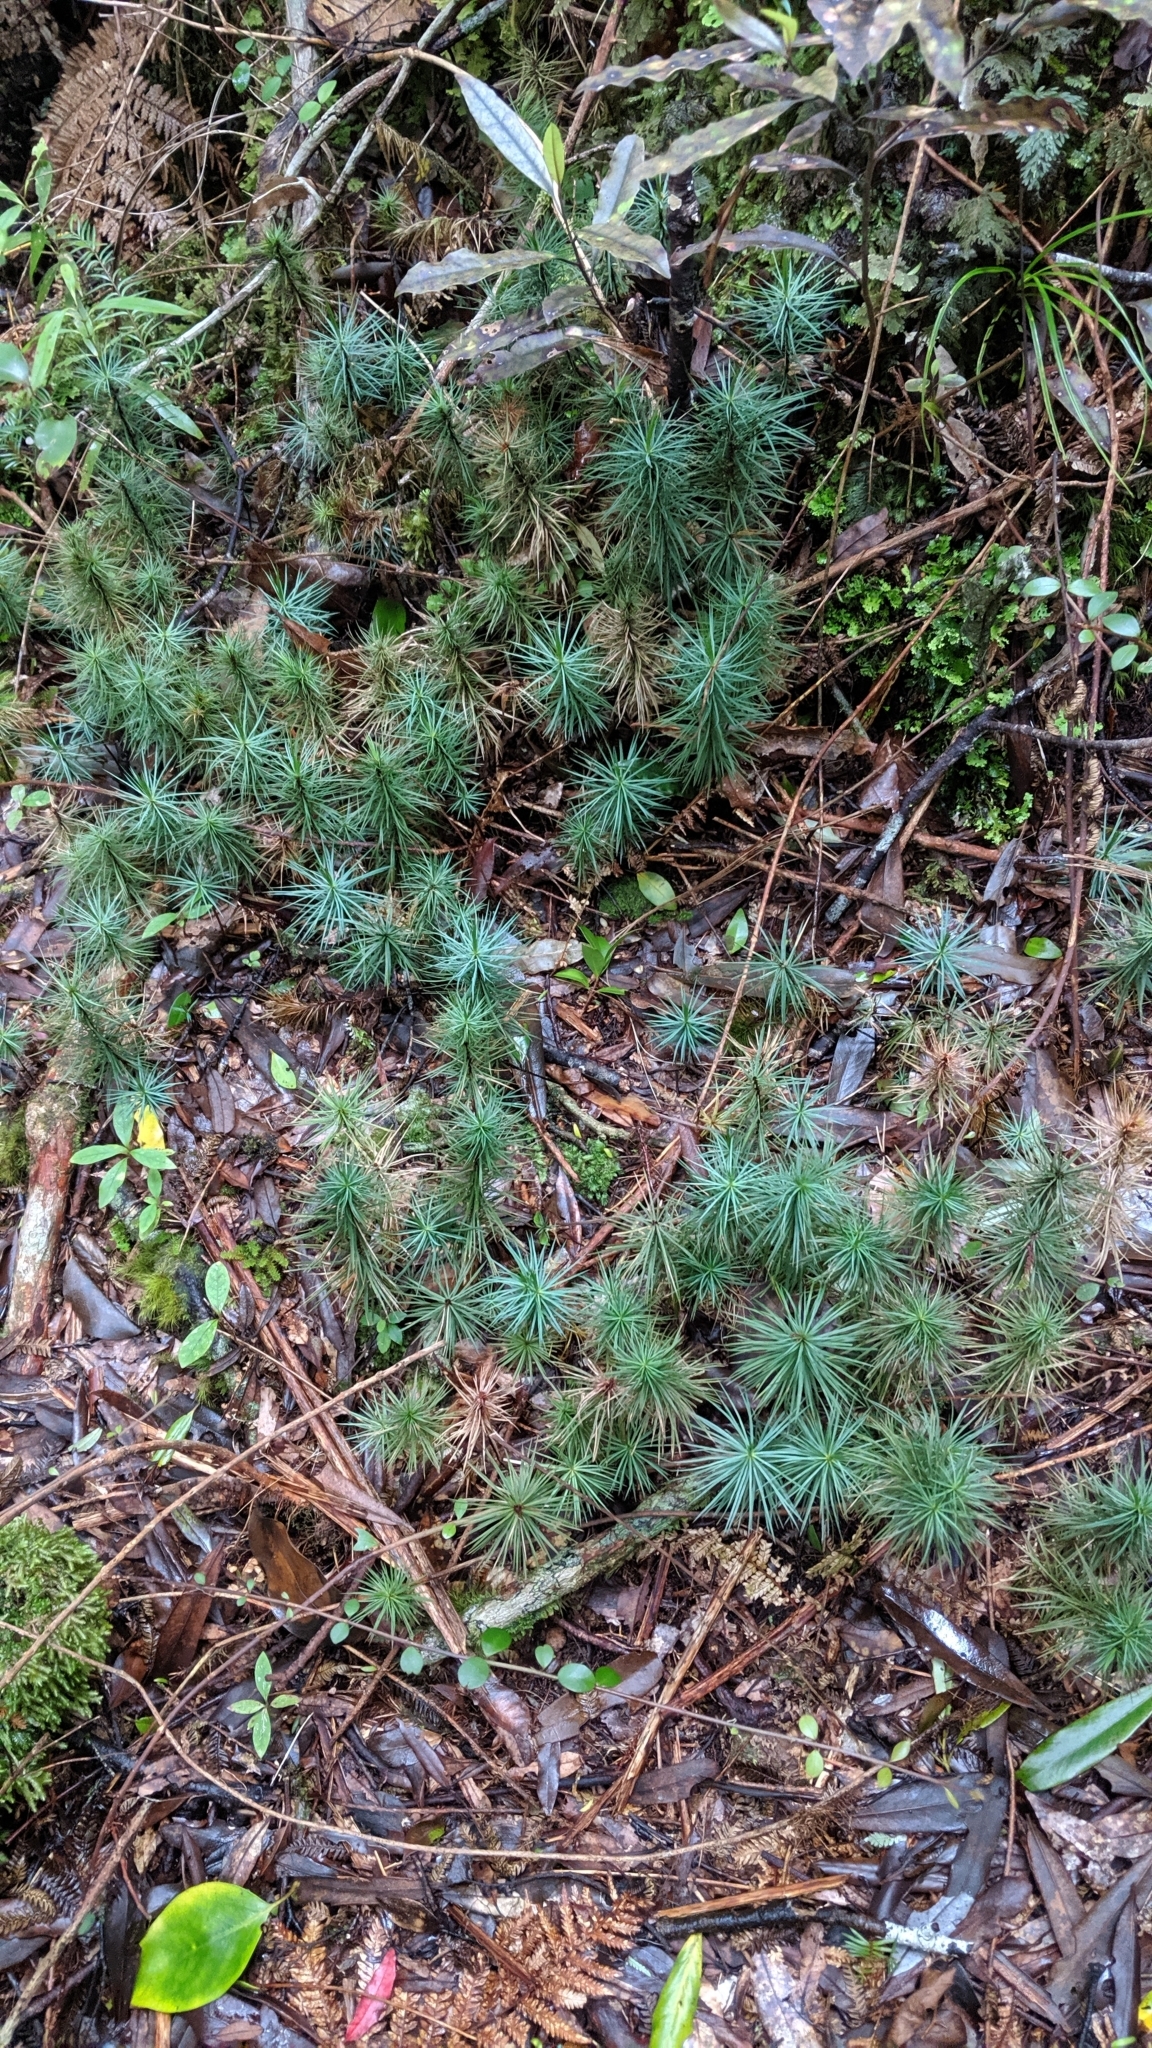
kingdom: Plantae
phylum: Bryophyta
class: Polytrichopsida
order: Polytrichales
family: Polytrichaceae
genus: Dawsonia
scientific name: Dawsonia superba
